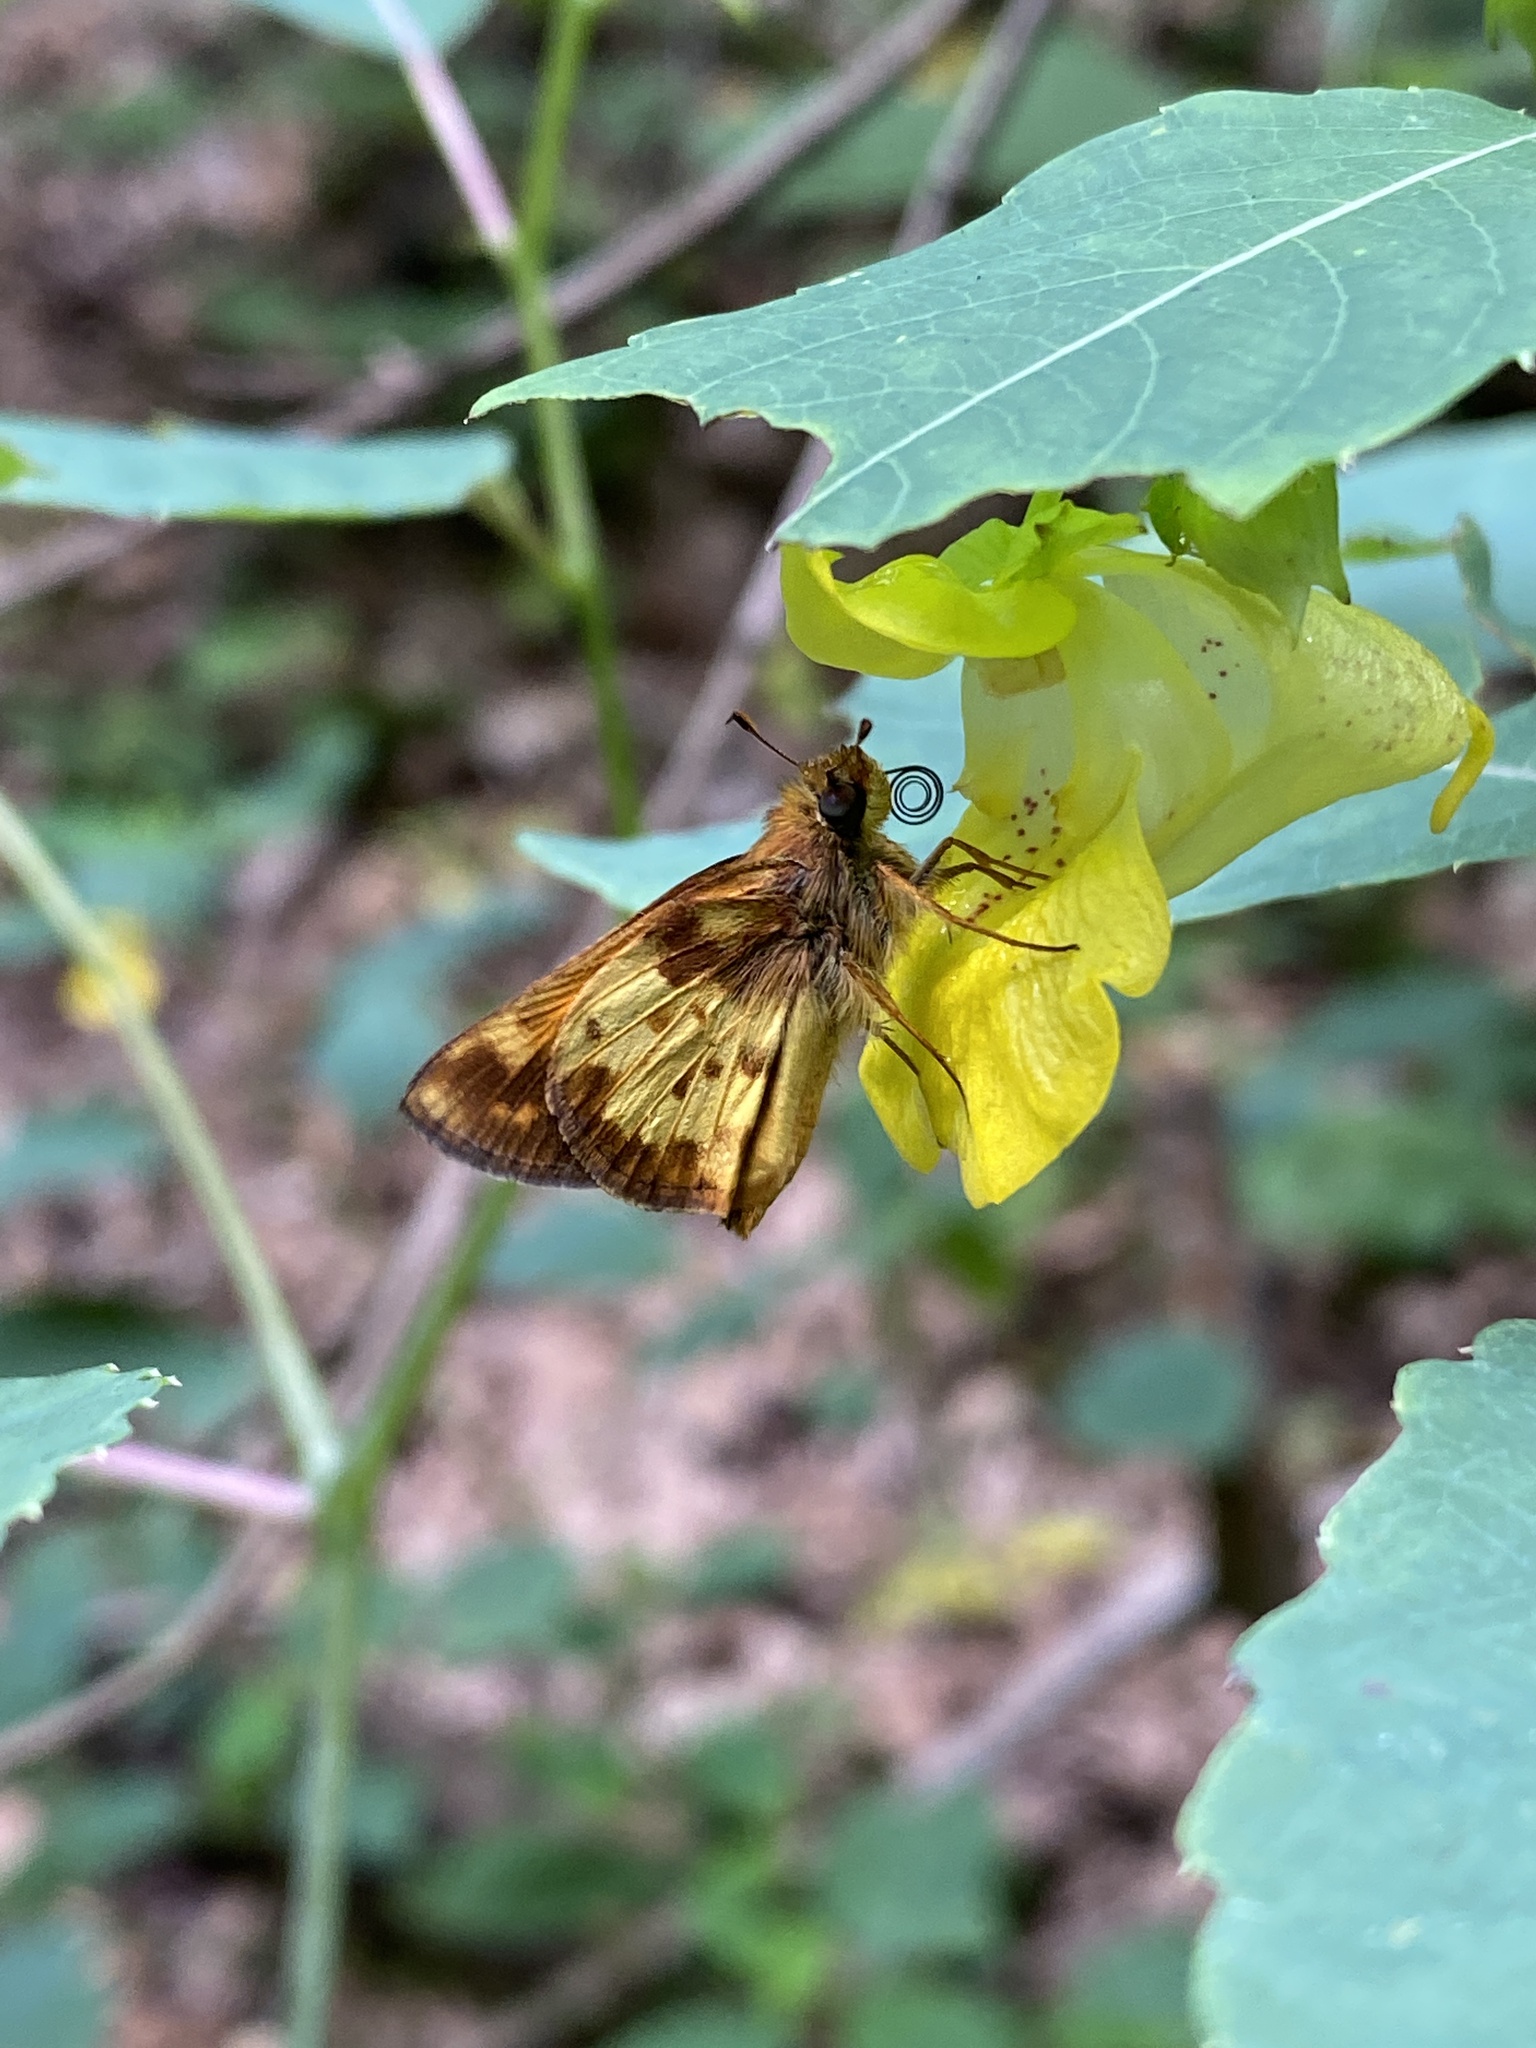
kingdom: Animalia
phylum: Arthropoda
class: Insecta
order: Lepidoptera
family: Hesperiidae
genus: Lon
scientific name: Lon zabulon
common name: Zabulon skipper
